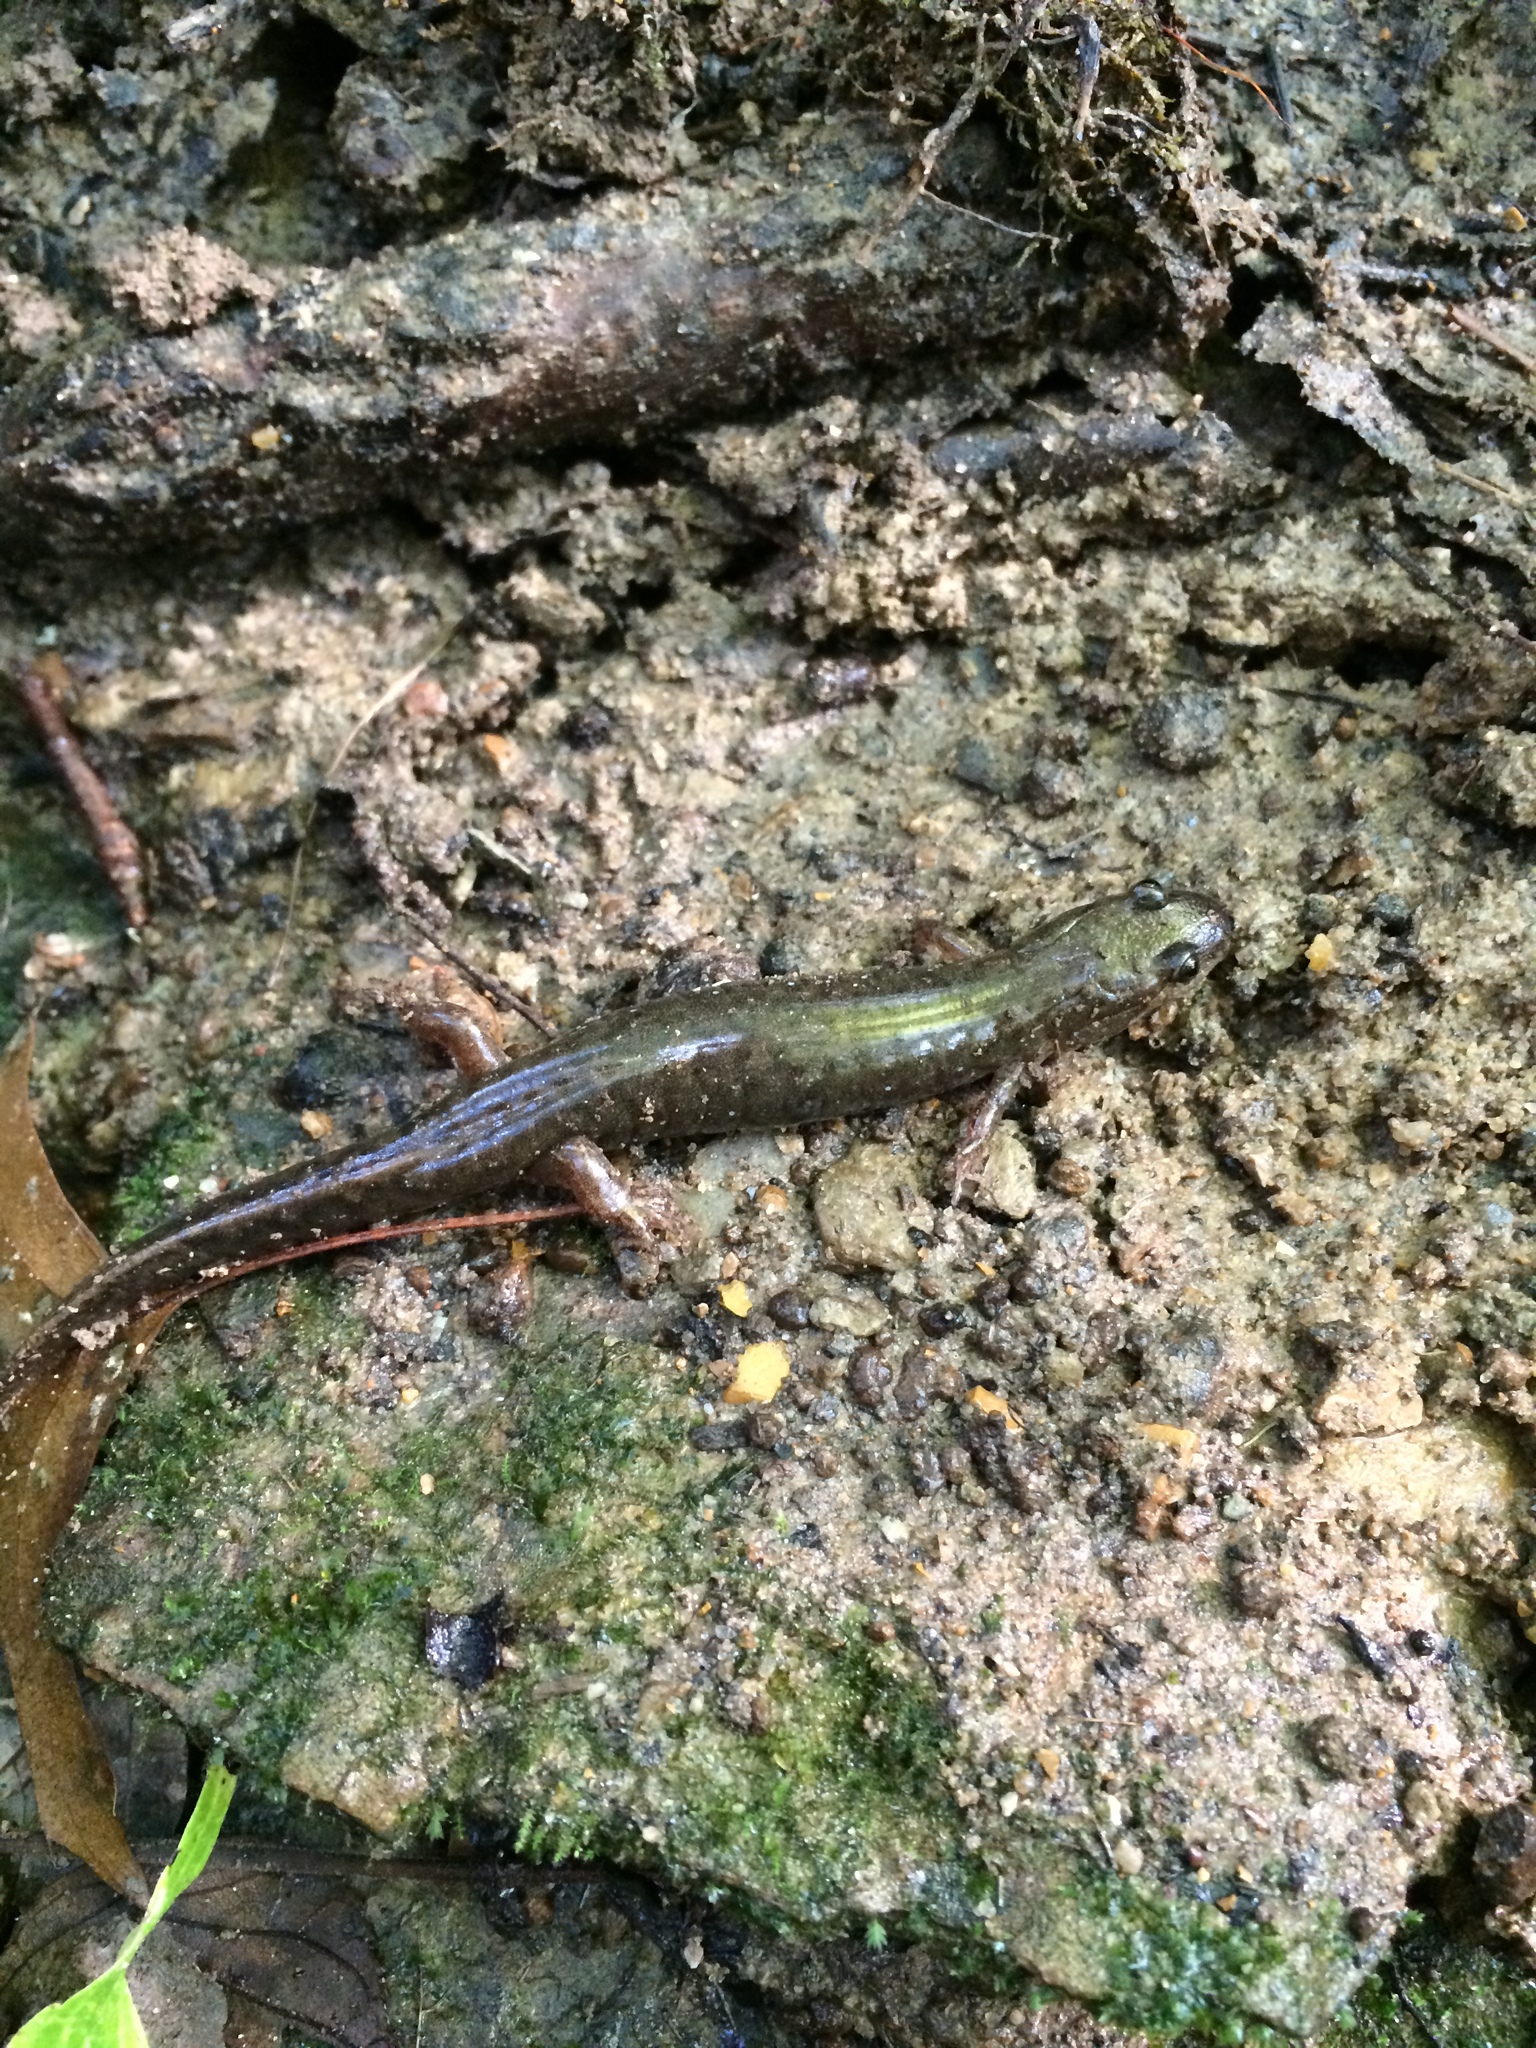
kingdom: Animalia
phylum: Chordata
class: Amphibia
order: Caudata
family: Plethodontidae
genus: Desmognathus
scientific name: Desmognathus fuscus
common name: Northern dusky salamander
